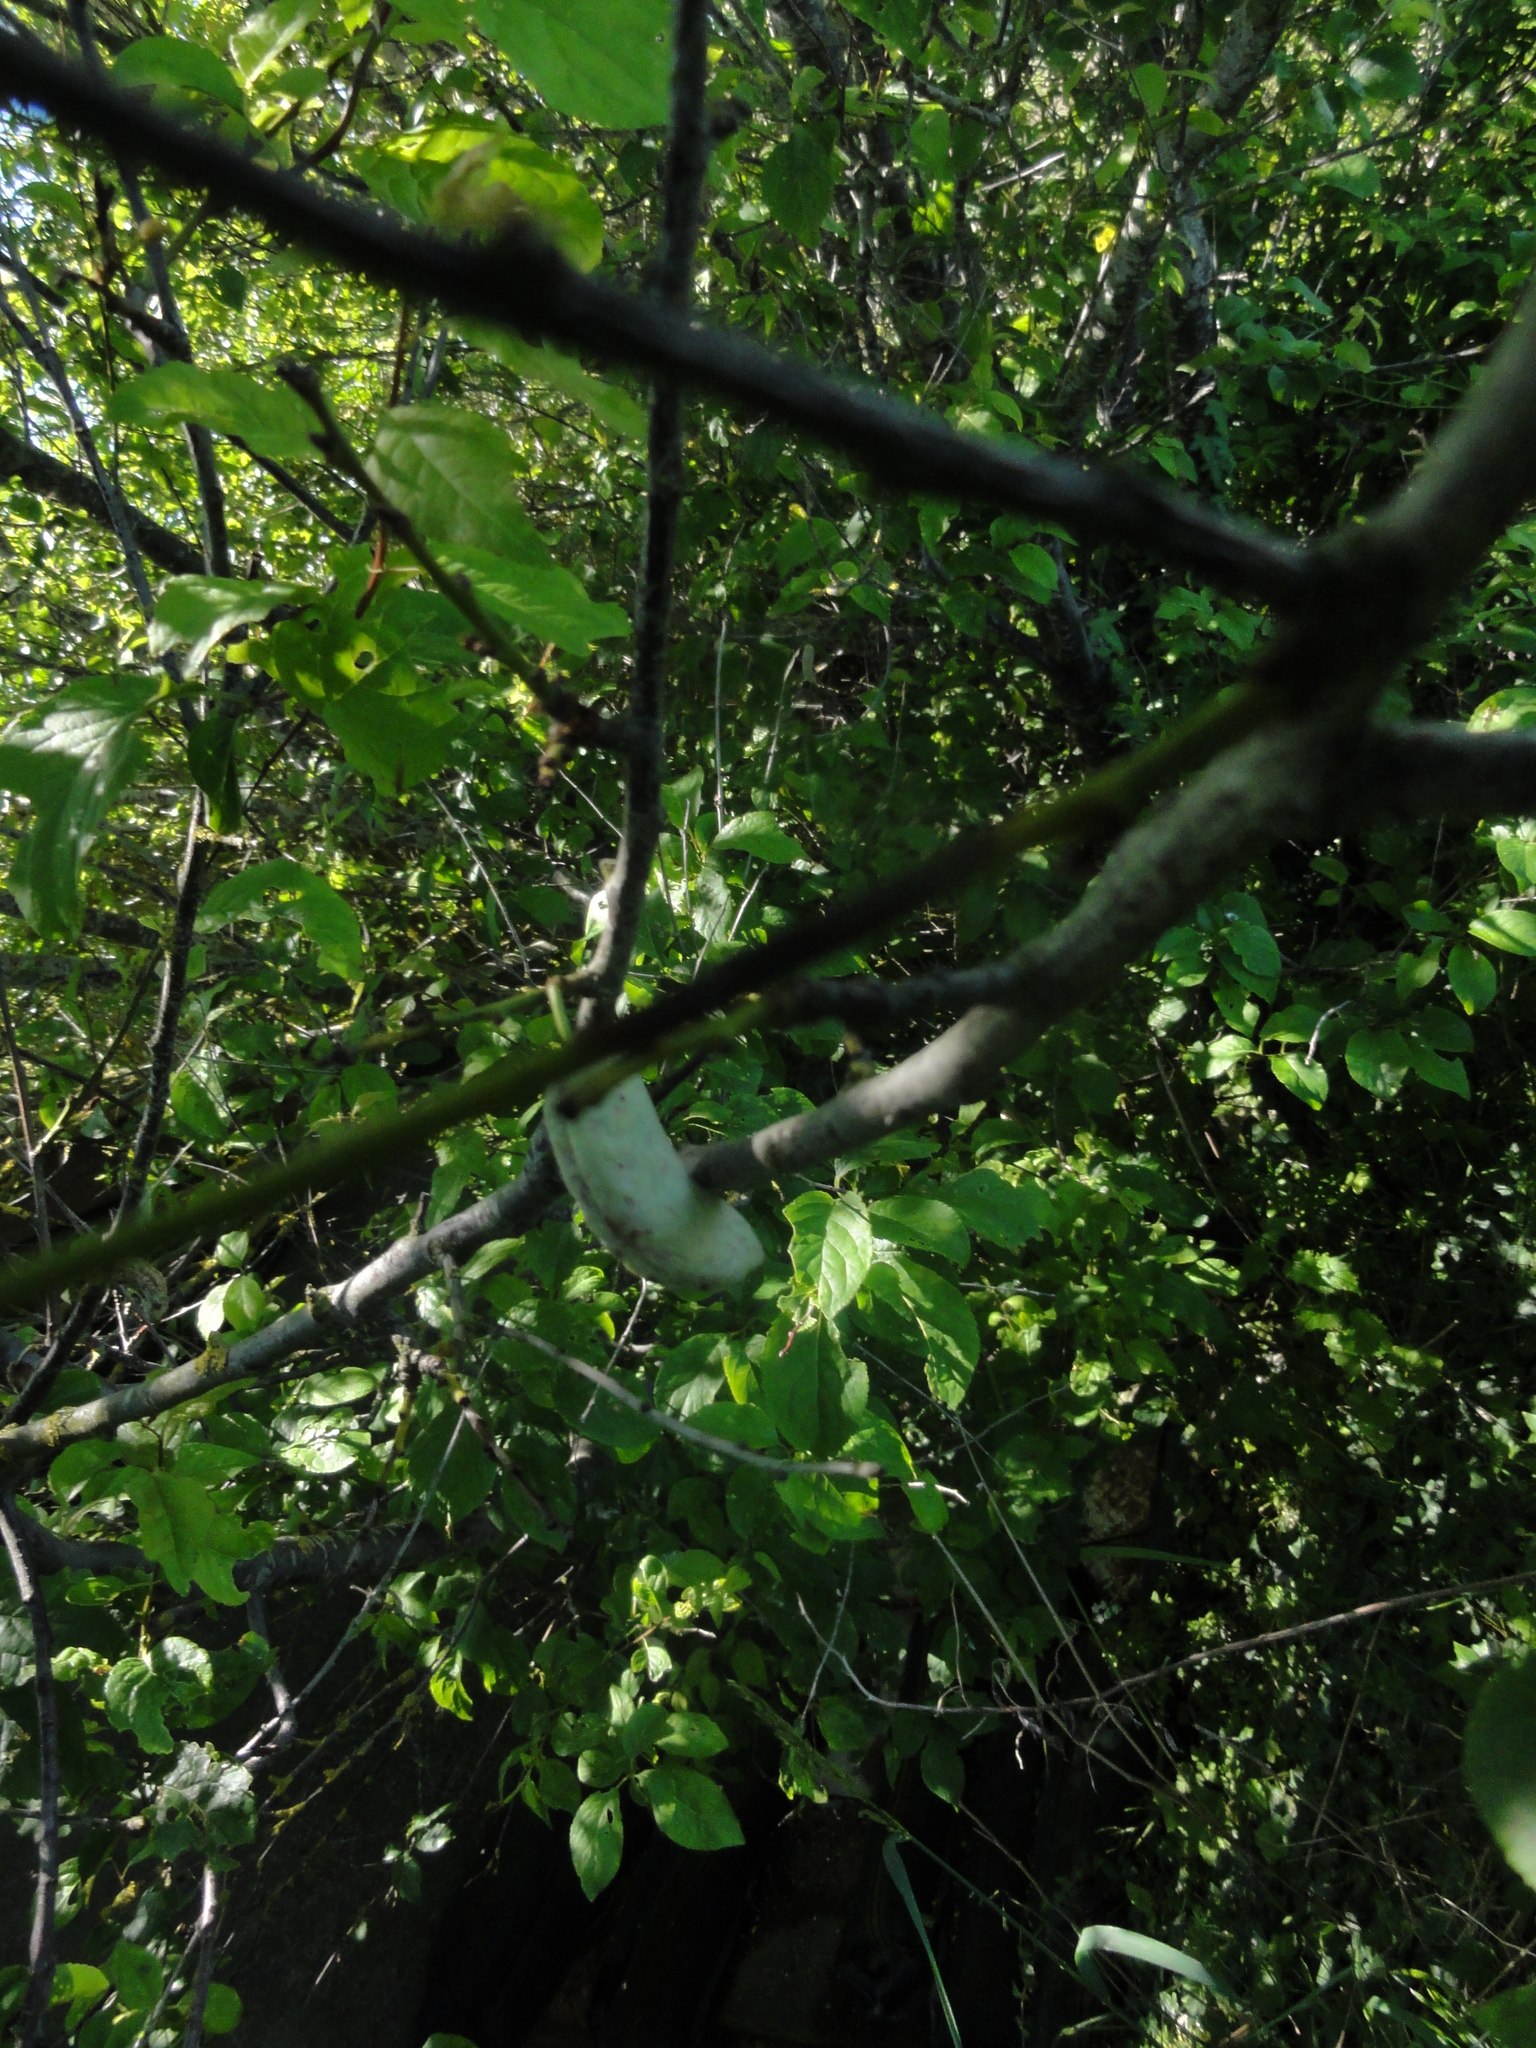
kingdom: Fungi
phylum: Ascomycota
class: Taphrinomycetes
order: Taphrinales
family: Taphrinaceae
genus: Taphrina
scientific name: Taphrina pruni
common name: Pocket plum
